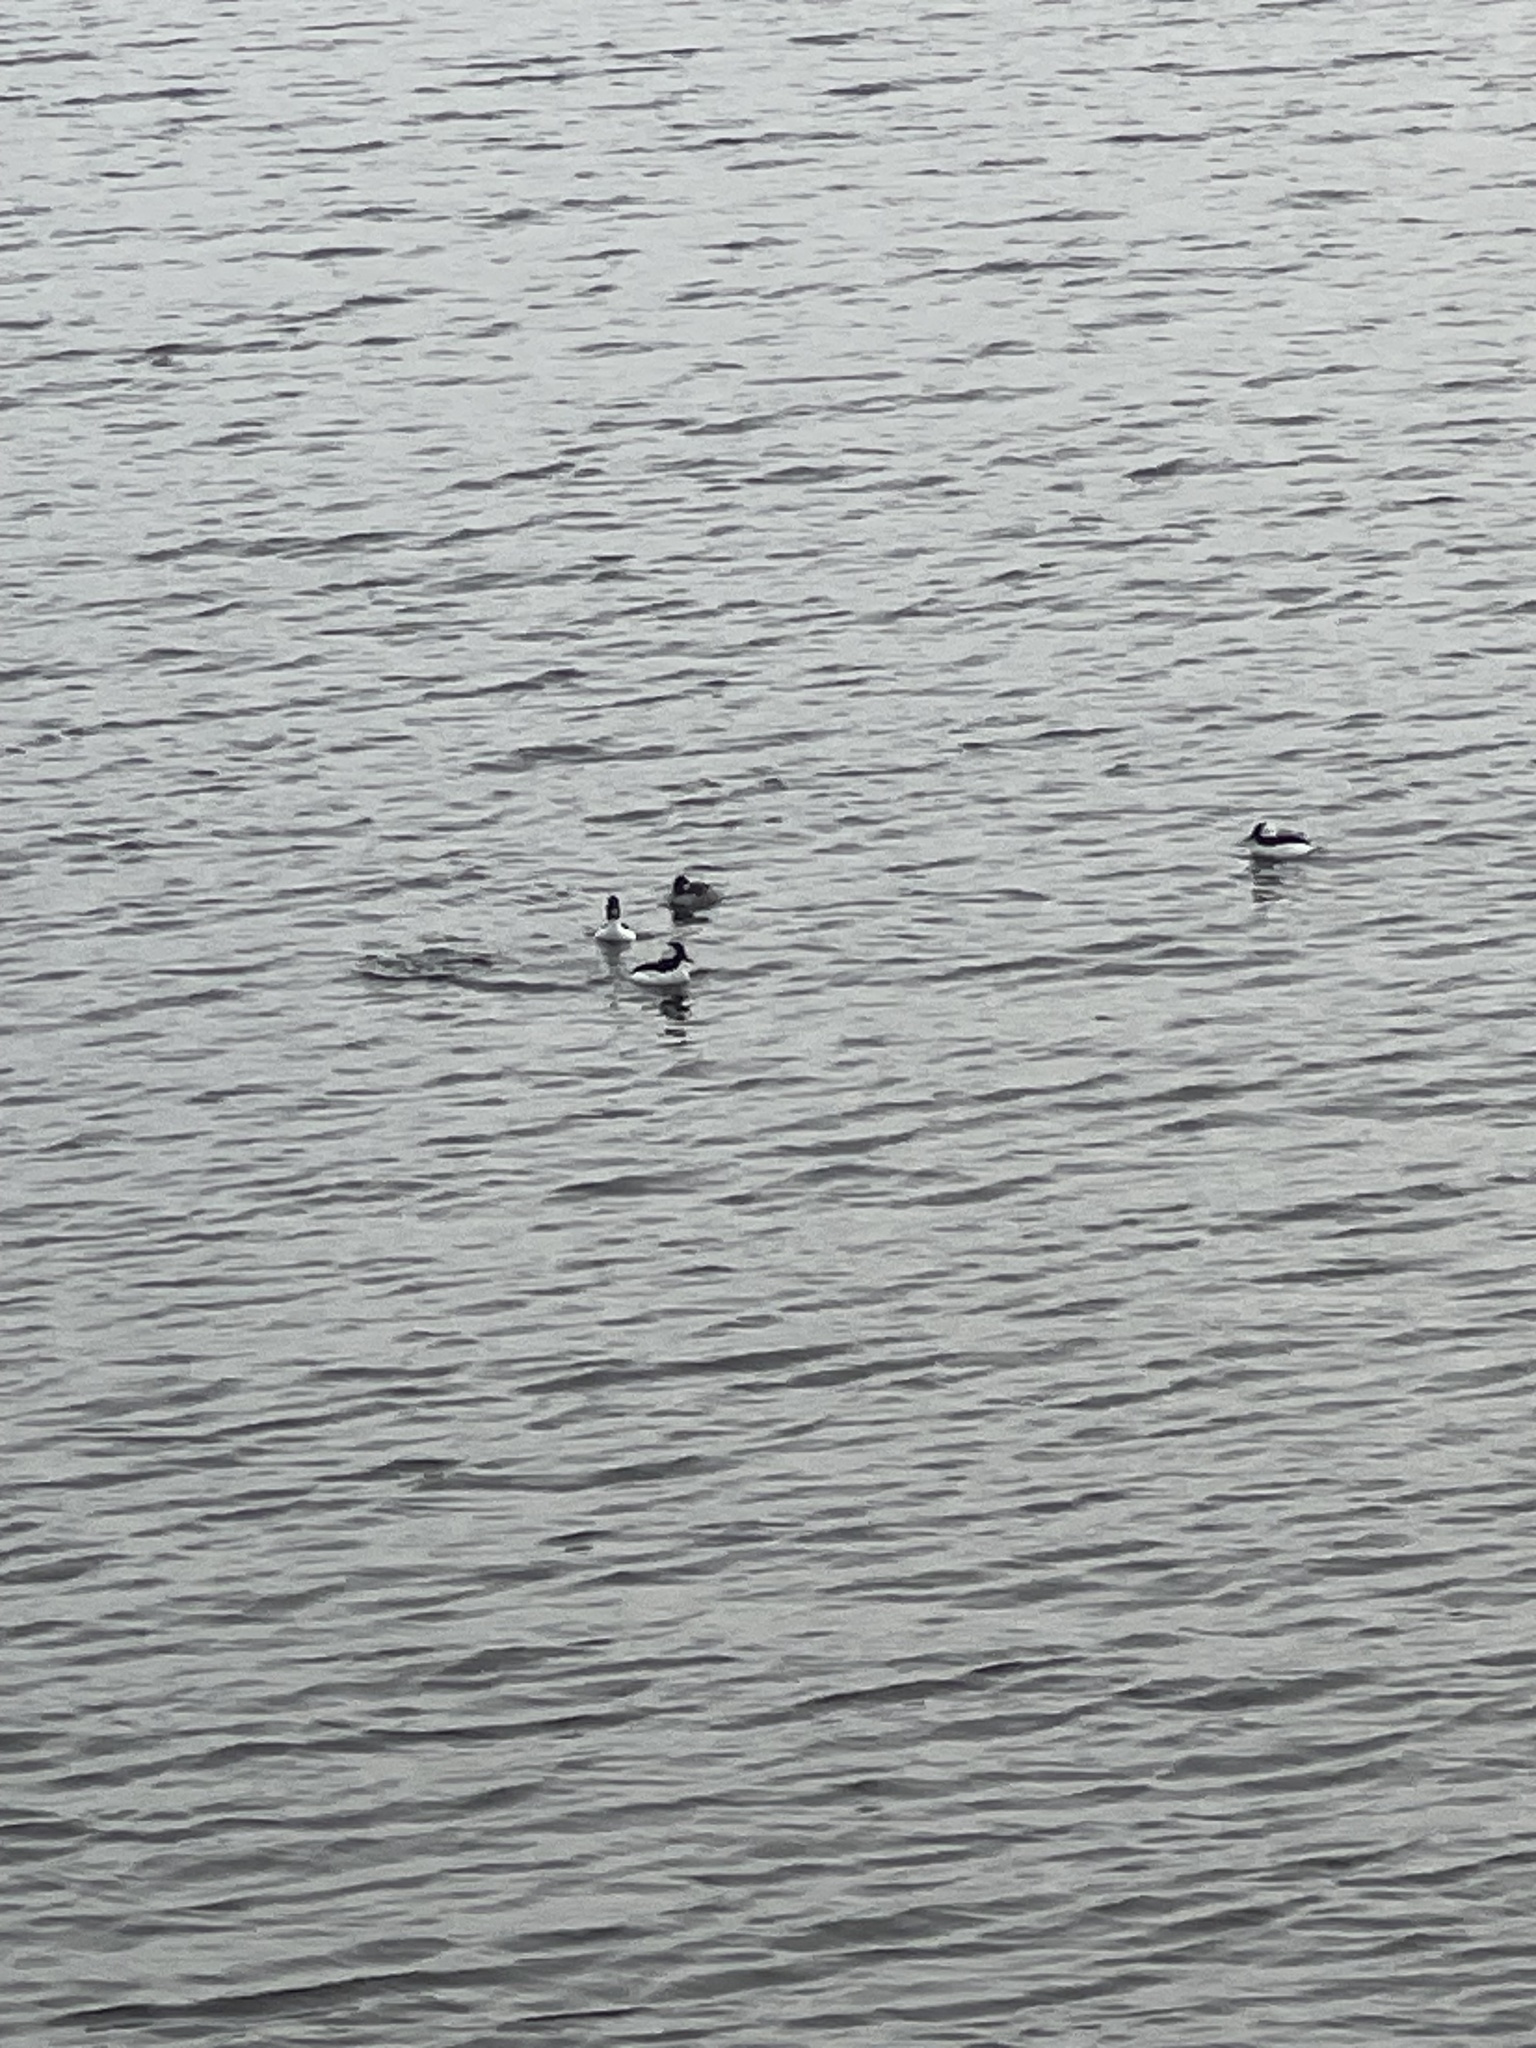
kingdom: Animalia
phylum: Chordata
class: Aves
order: Anseriformes
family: Anatidae
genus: Bucephala
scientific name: Bucephala albeola
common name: Bufflehead
